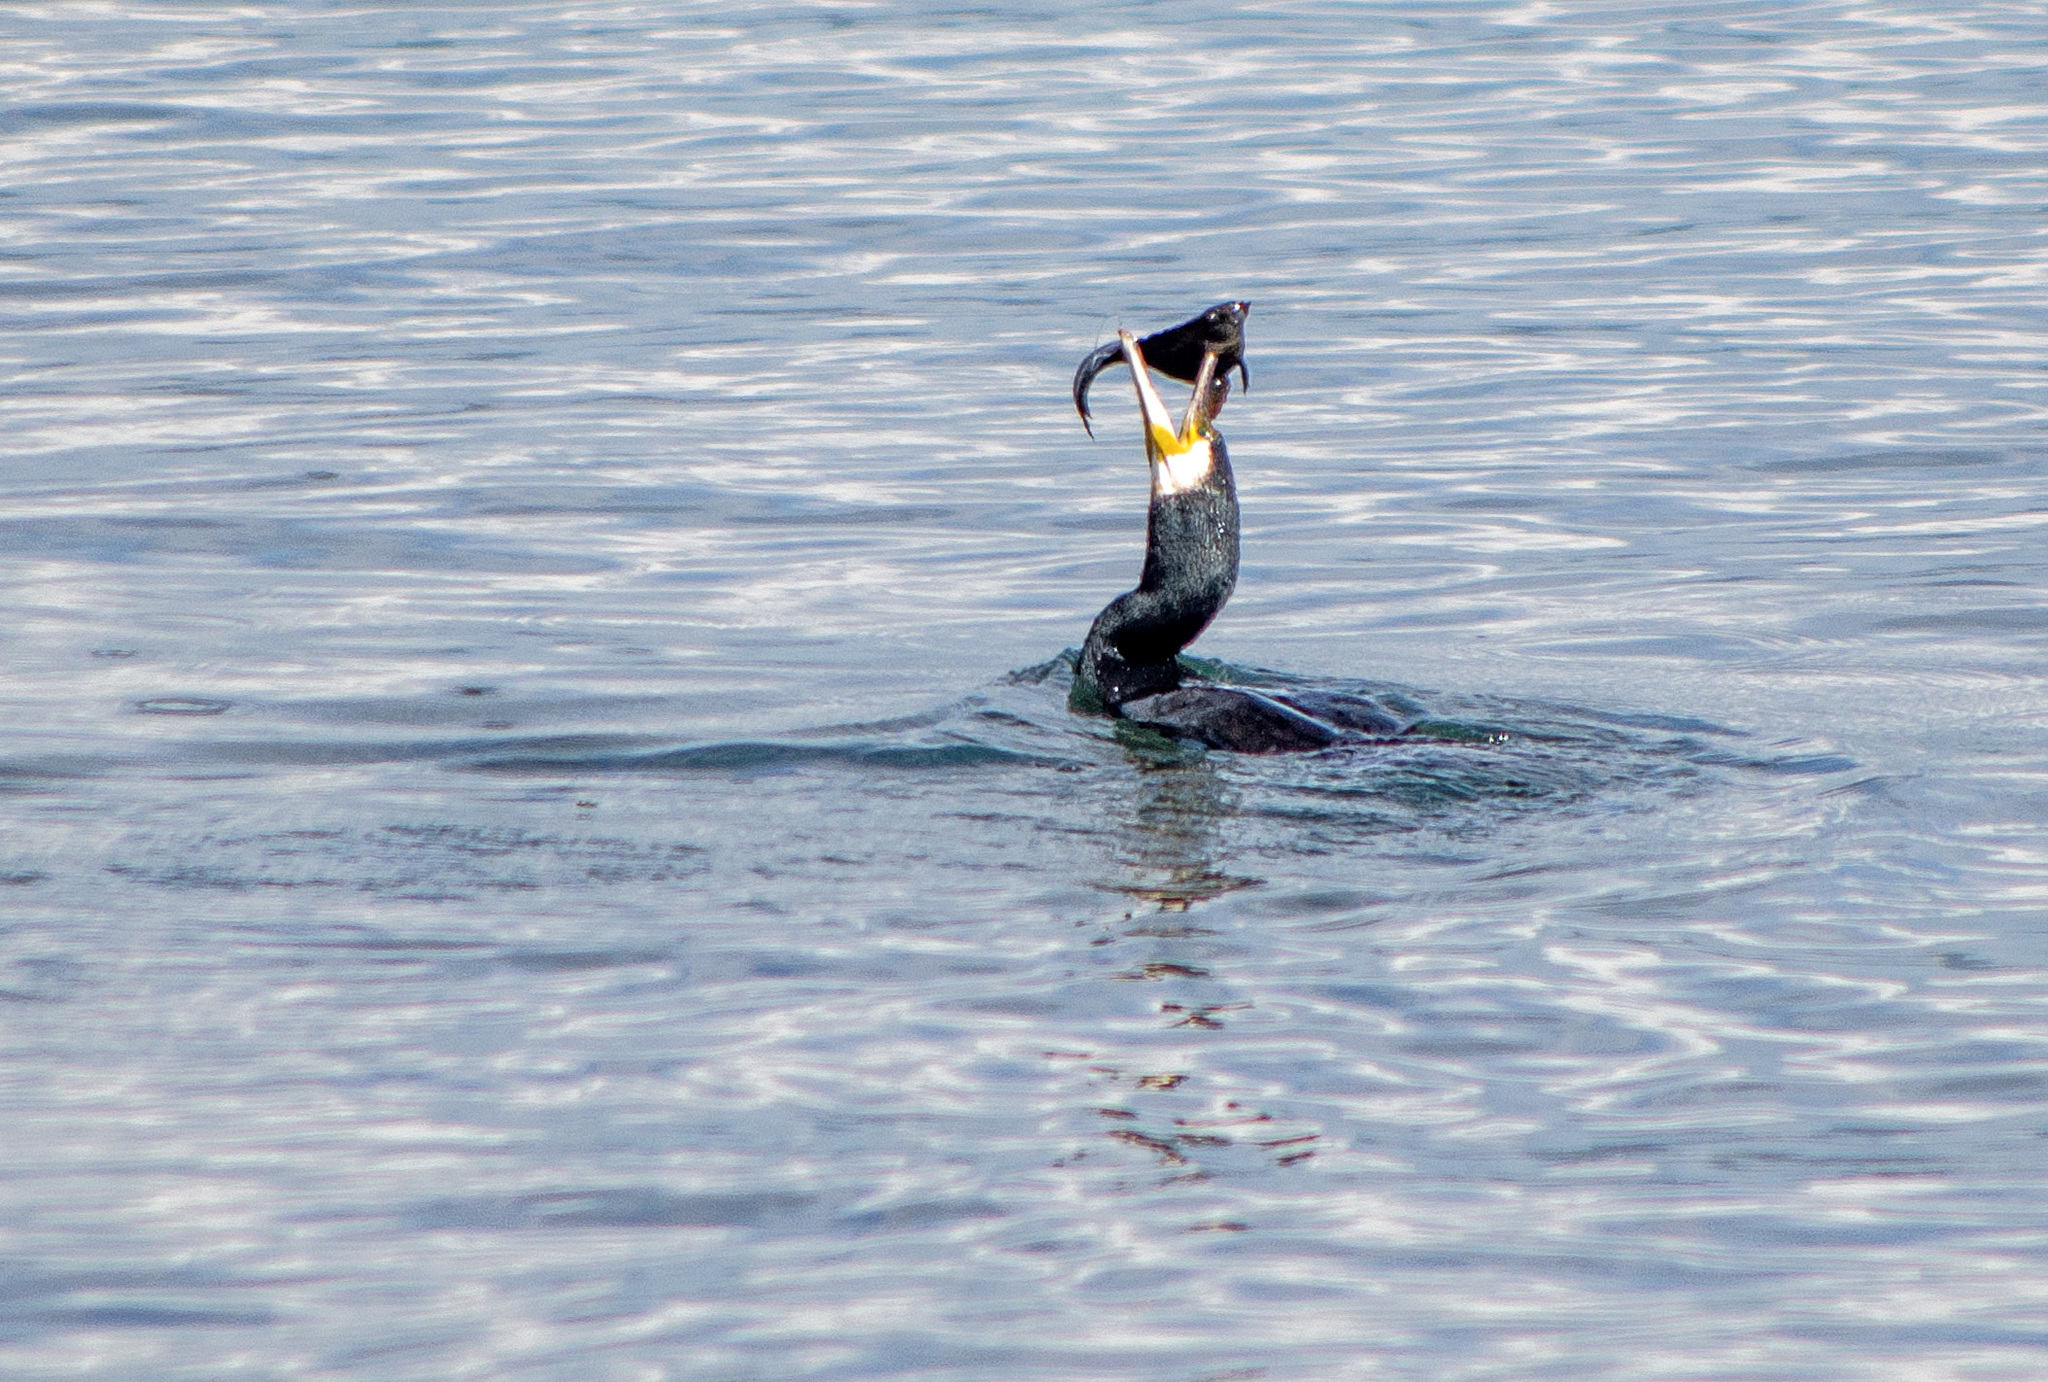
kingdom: Animalia
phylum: Chordata
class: Aves
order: Suliformes
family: Phalacrocoracidae
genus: Phalacrocorax
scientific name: Phalacrocorax carbo
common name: Great cormorant
